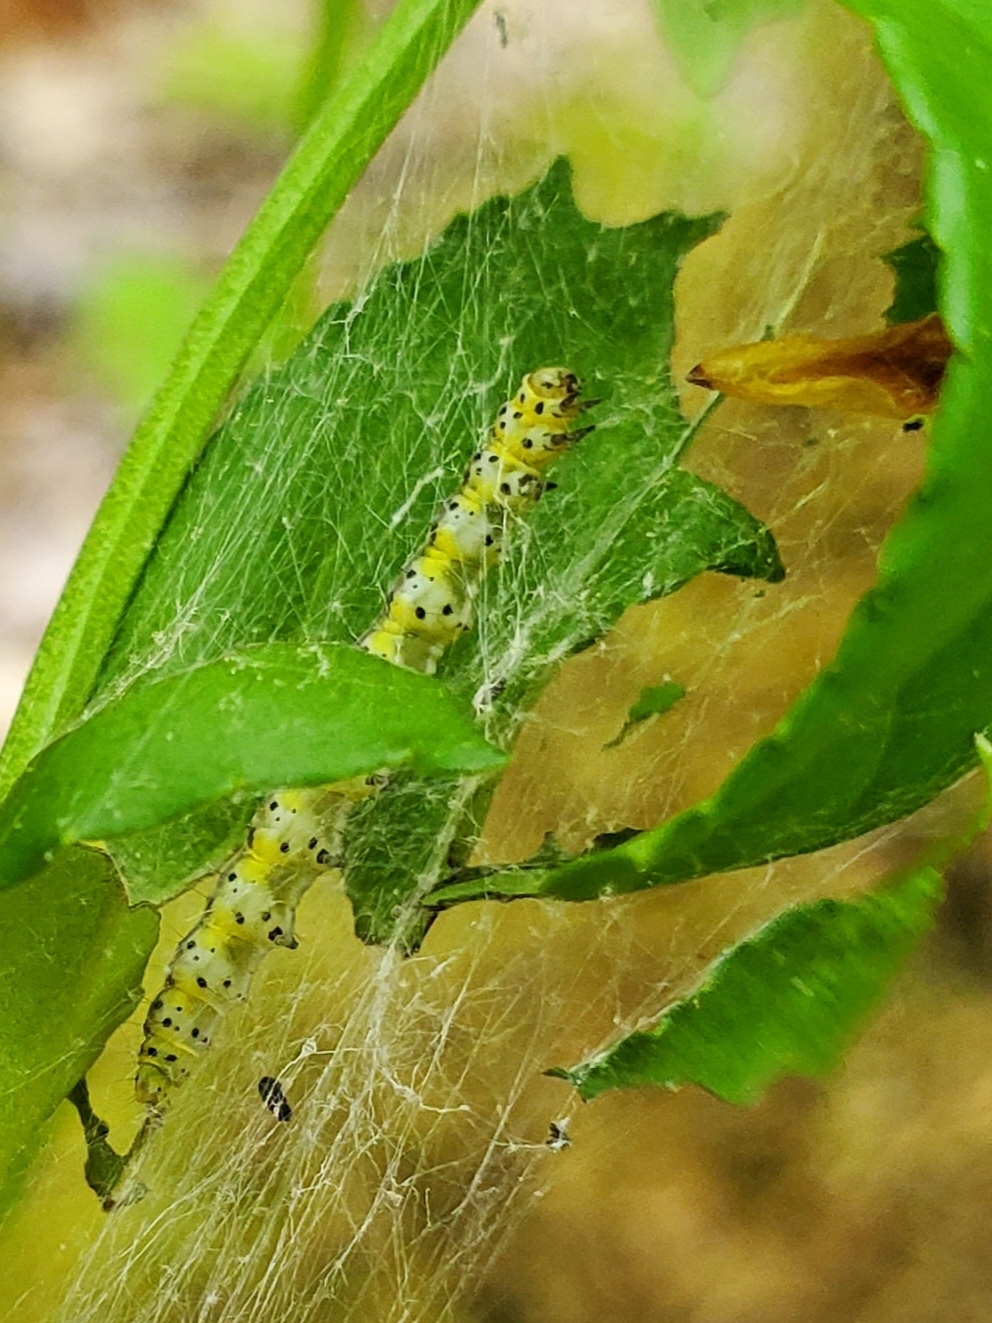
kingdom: Animalia
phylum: Arthropoda
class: Insecta
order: Lepidoptera
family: Yponomeutidae
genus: Yponomeuta
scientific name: Yponomeuta multipunctella
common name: American ermine moth
